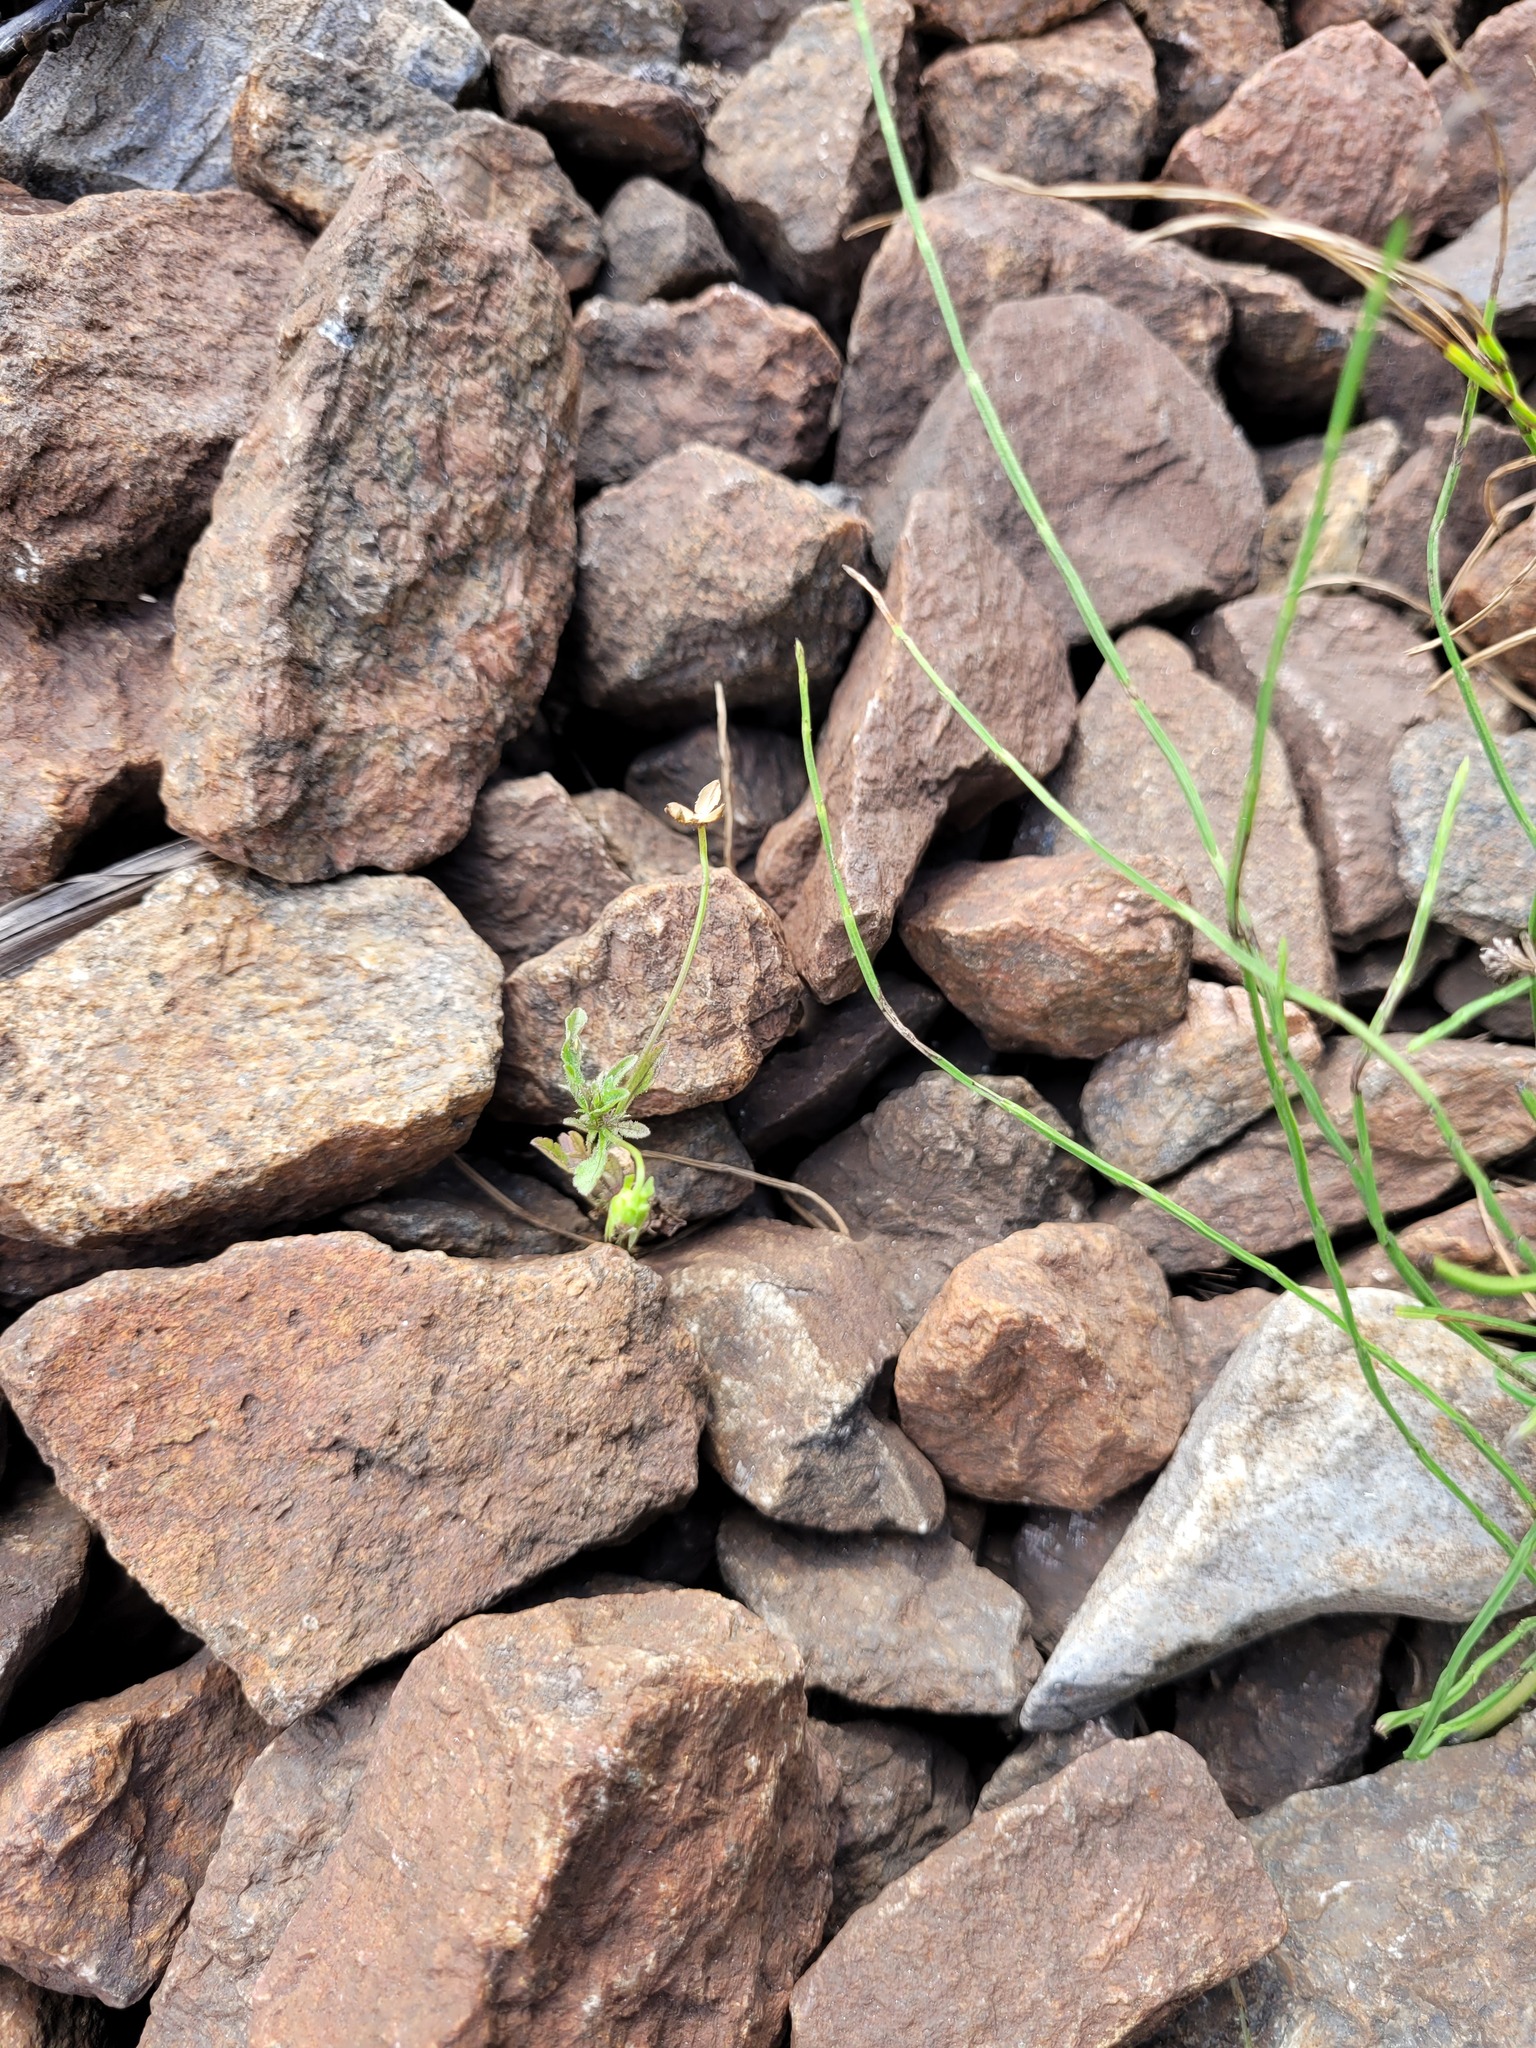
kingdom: Plantae
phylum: Tracheophyta
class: Magnoliopsida
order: Malpighiales
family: Violaceae
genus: Viola
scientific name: Viola arvensis
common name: Field pansy
